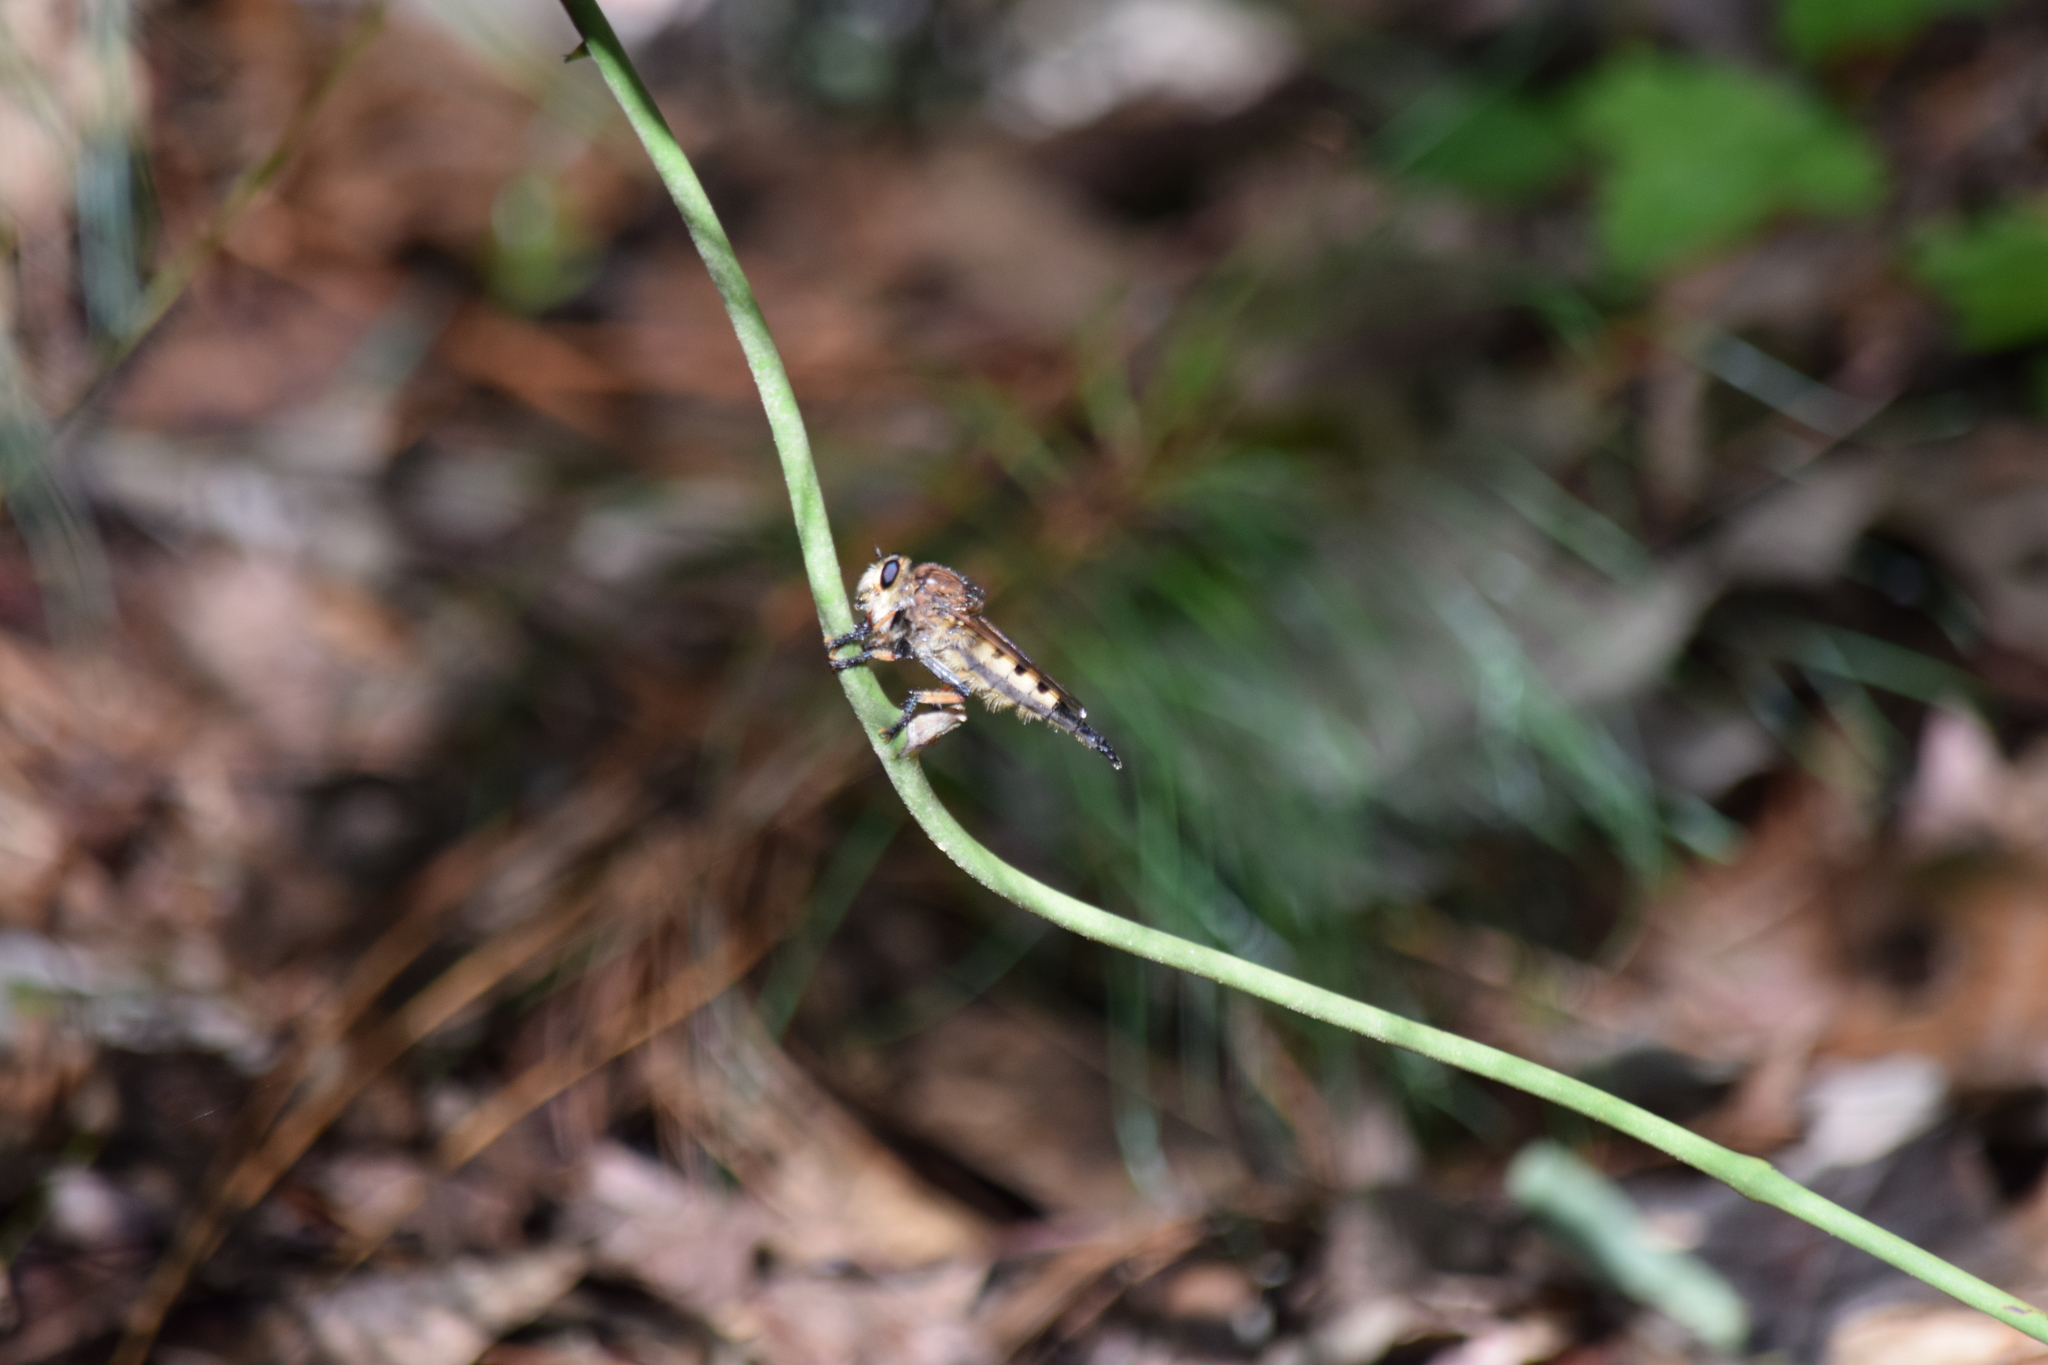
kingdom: Animalia
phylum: Arthropoda
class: Insecta
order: Diptera
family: Asilidae
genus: Promachus
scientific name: Promachus rufipes
